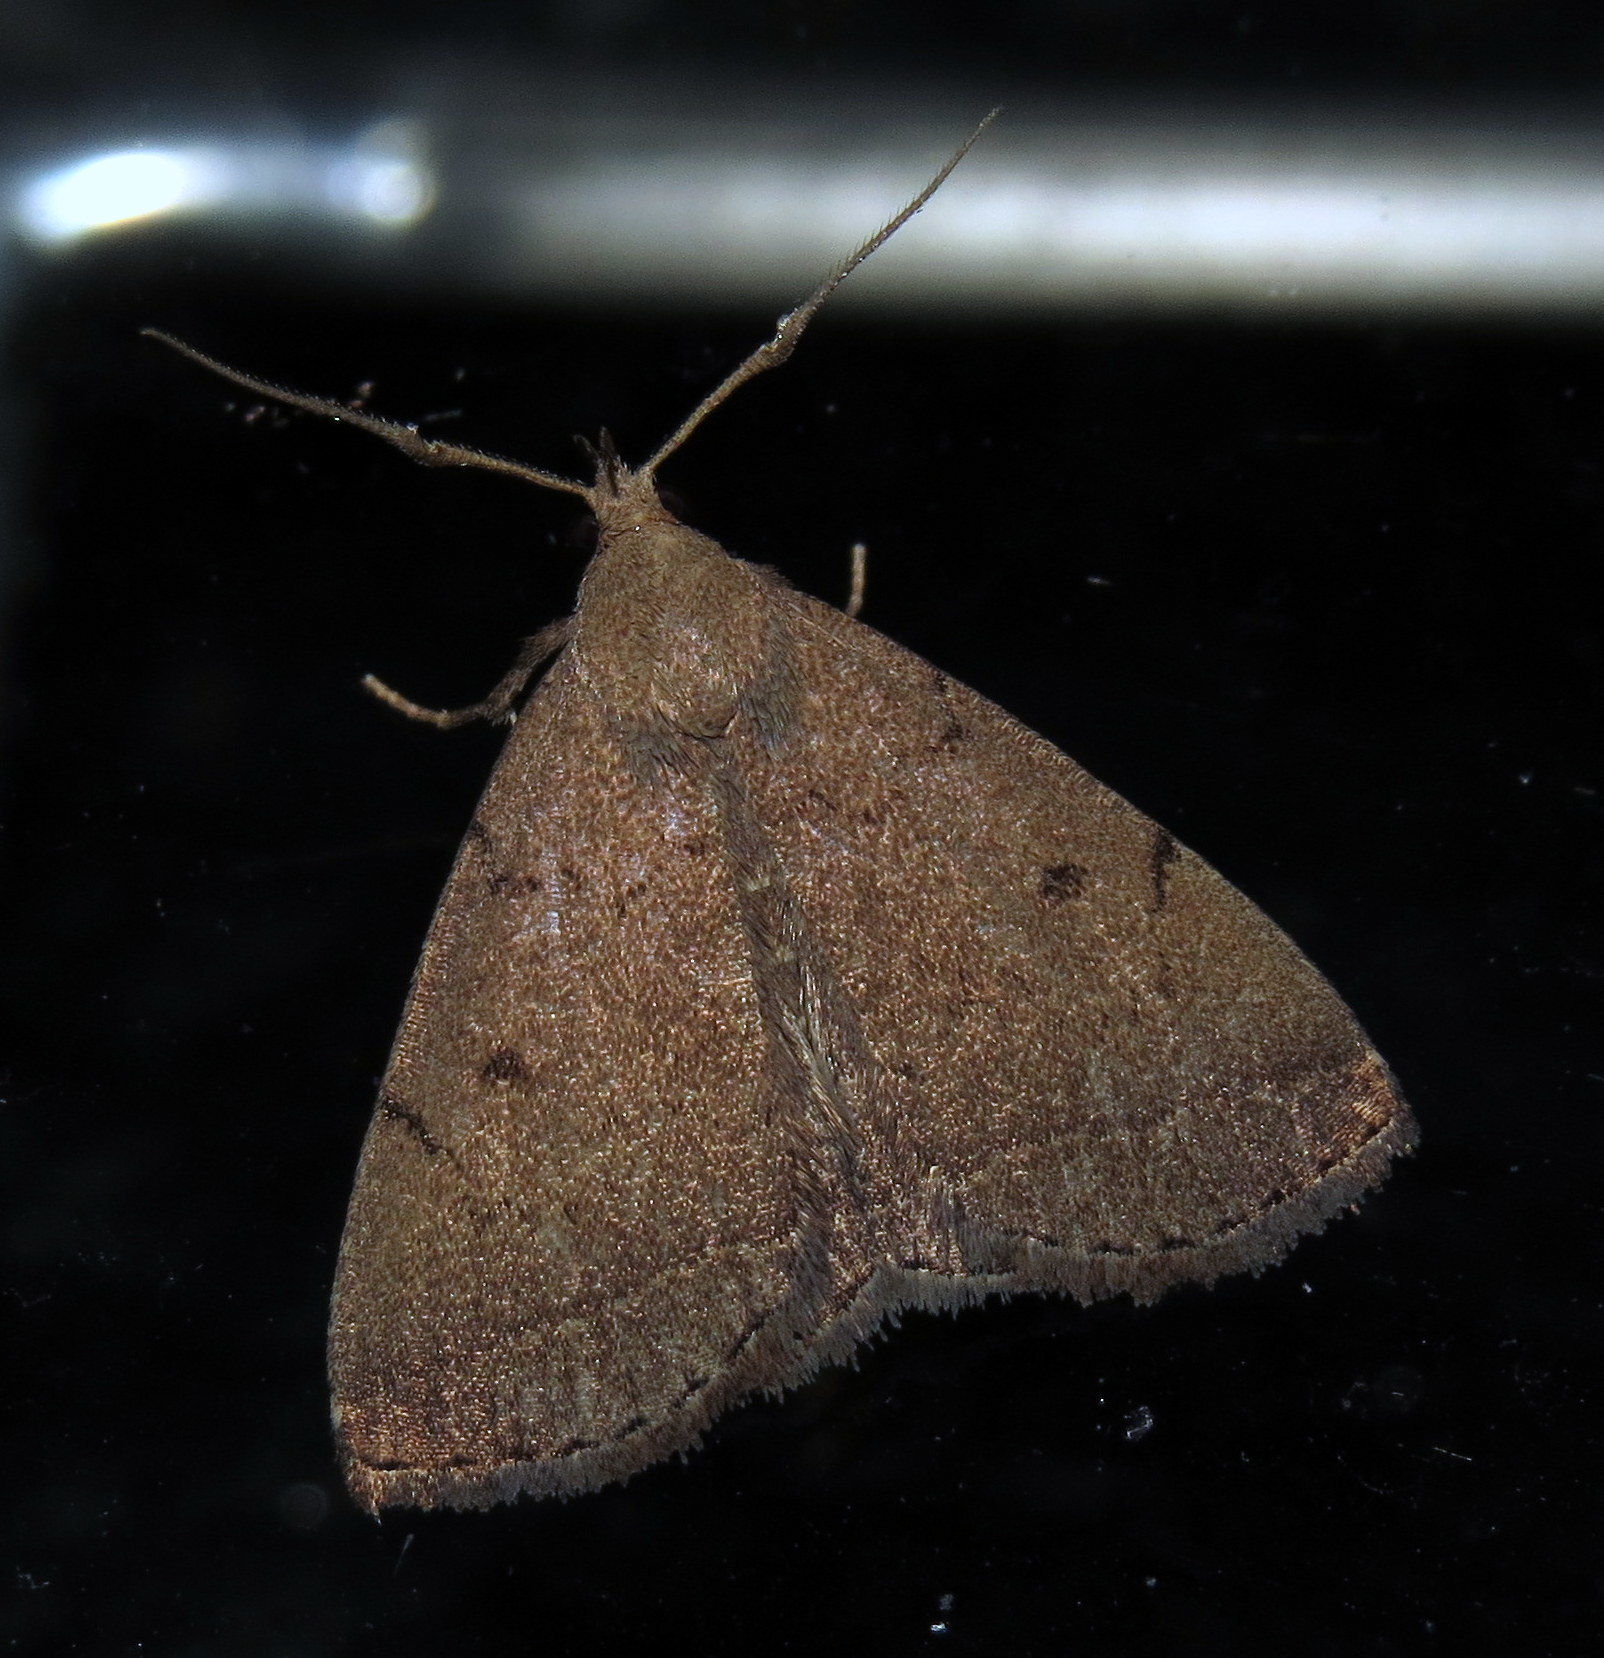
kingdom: Animalia
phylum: Arthropoda
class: Insecta
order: Lepidoptera
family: Erebidae
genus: Zanclognatha
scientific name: Zanclognatha protumnusalis
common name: Complex fan-foot
